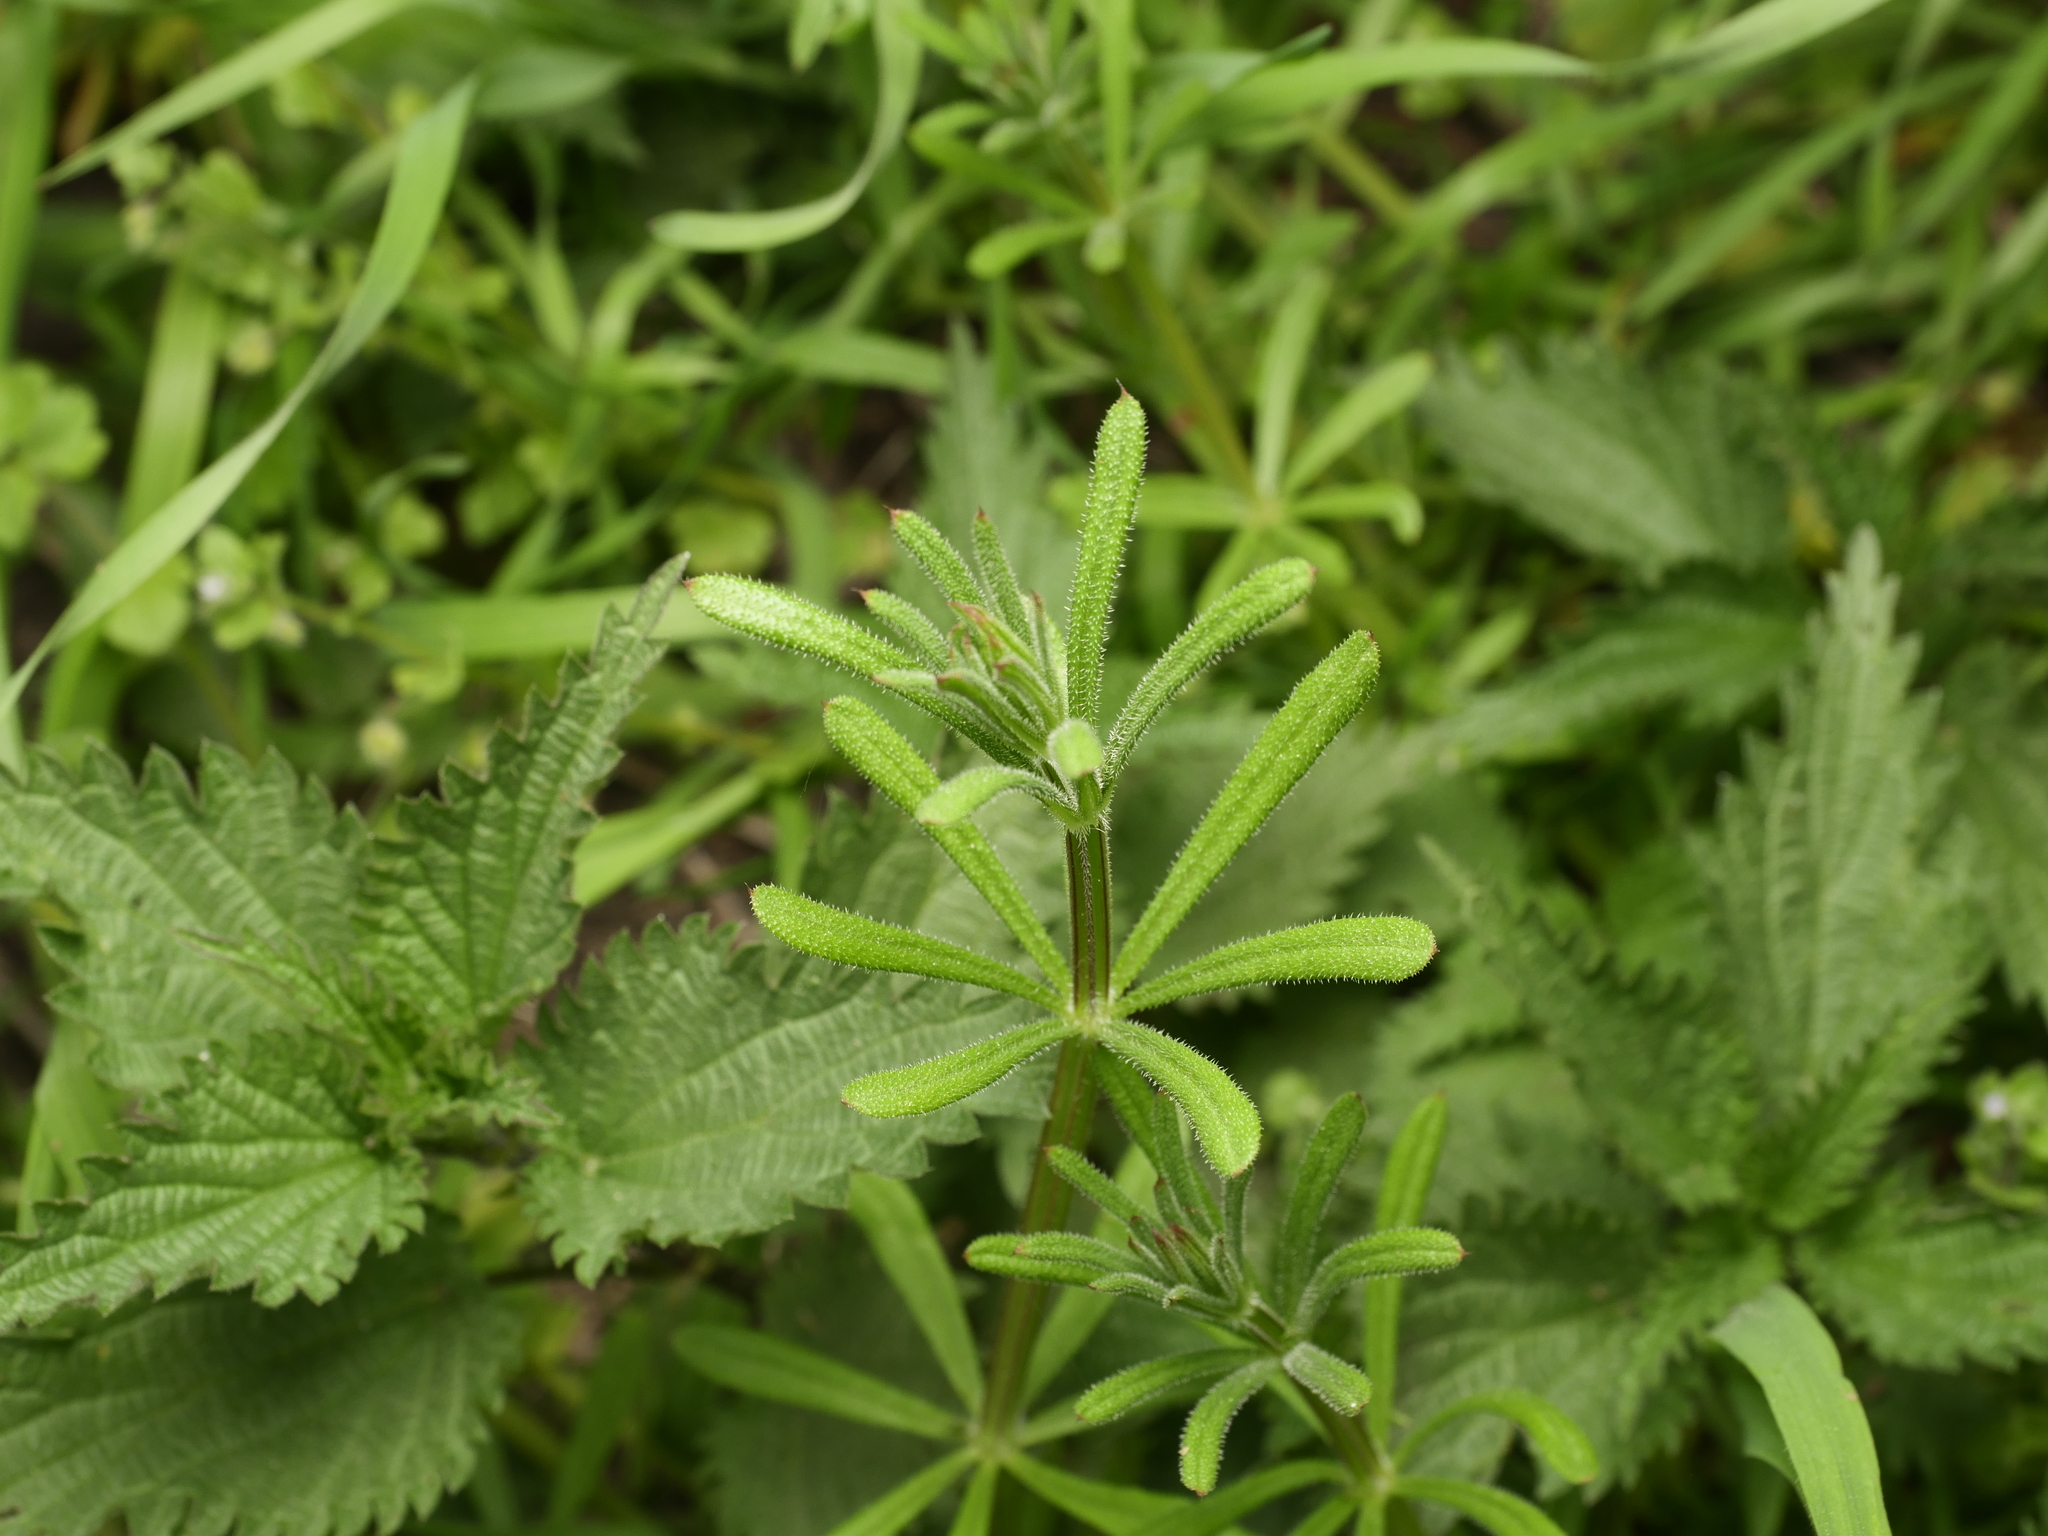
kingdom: Plantae
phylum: Tracheophyta
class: Magnoliopsida
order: Gentianales
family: Rubiaceae
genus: Galium
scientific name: Galium aparine
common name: Cleavers
